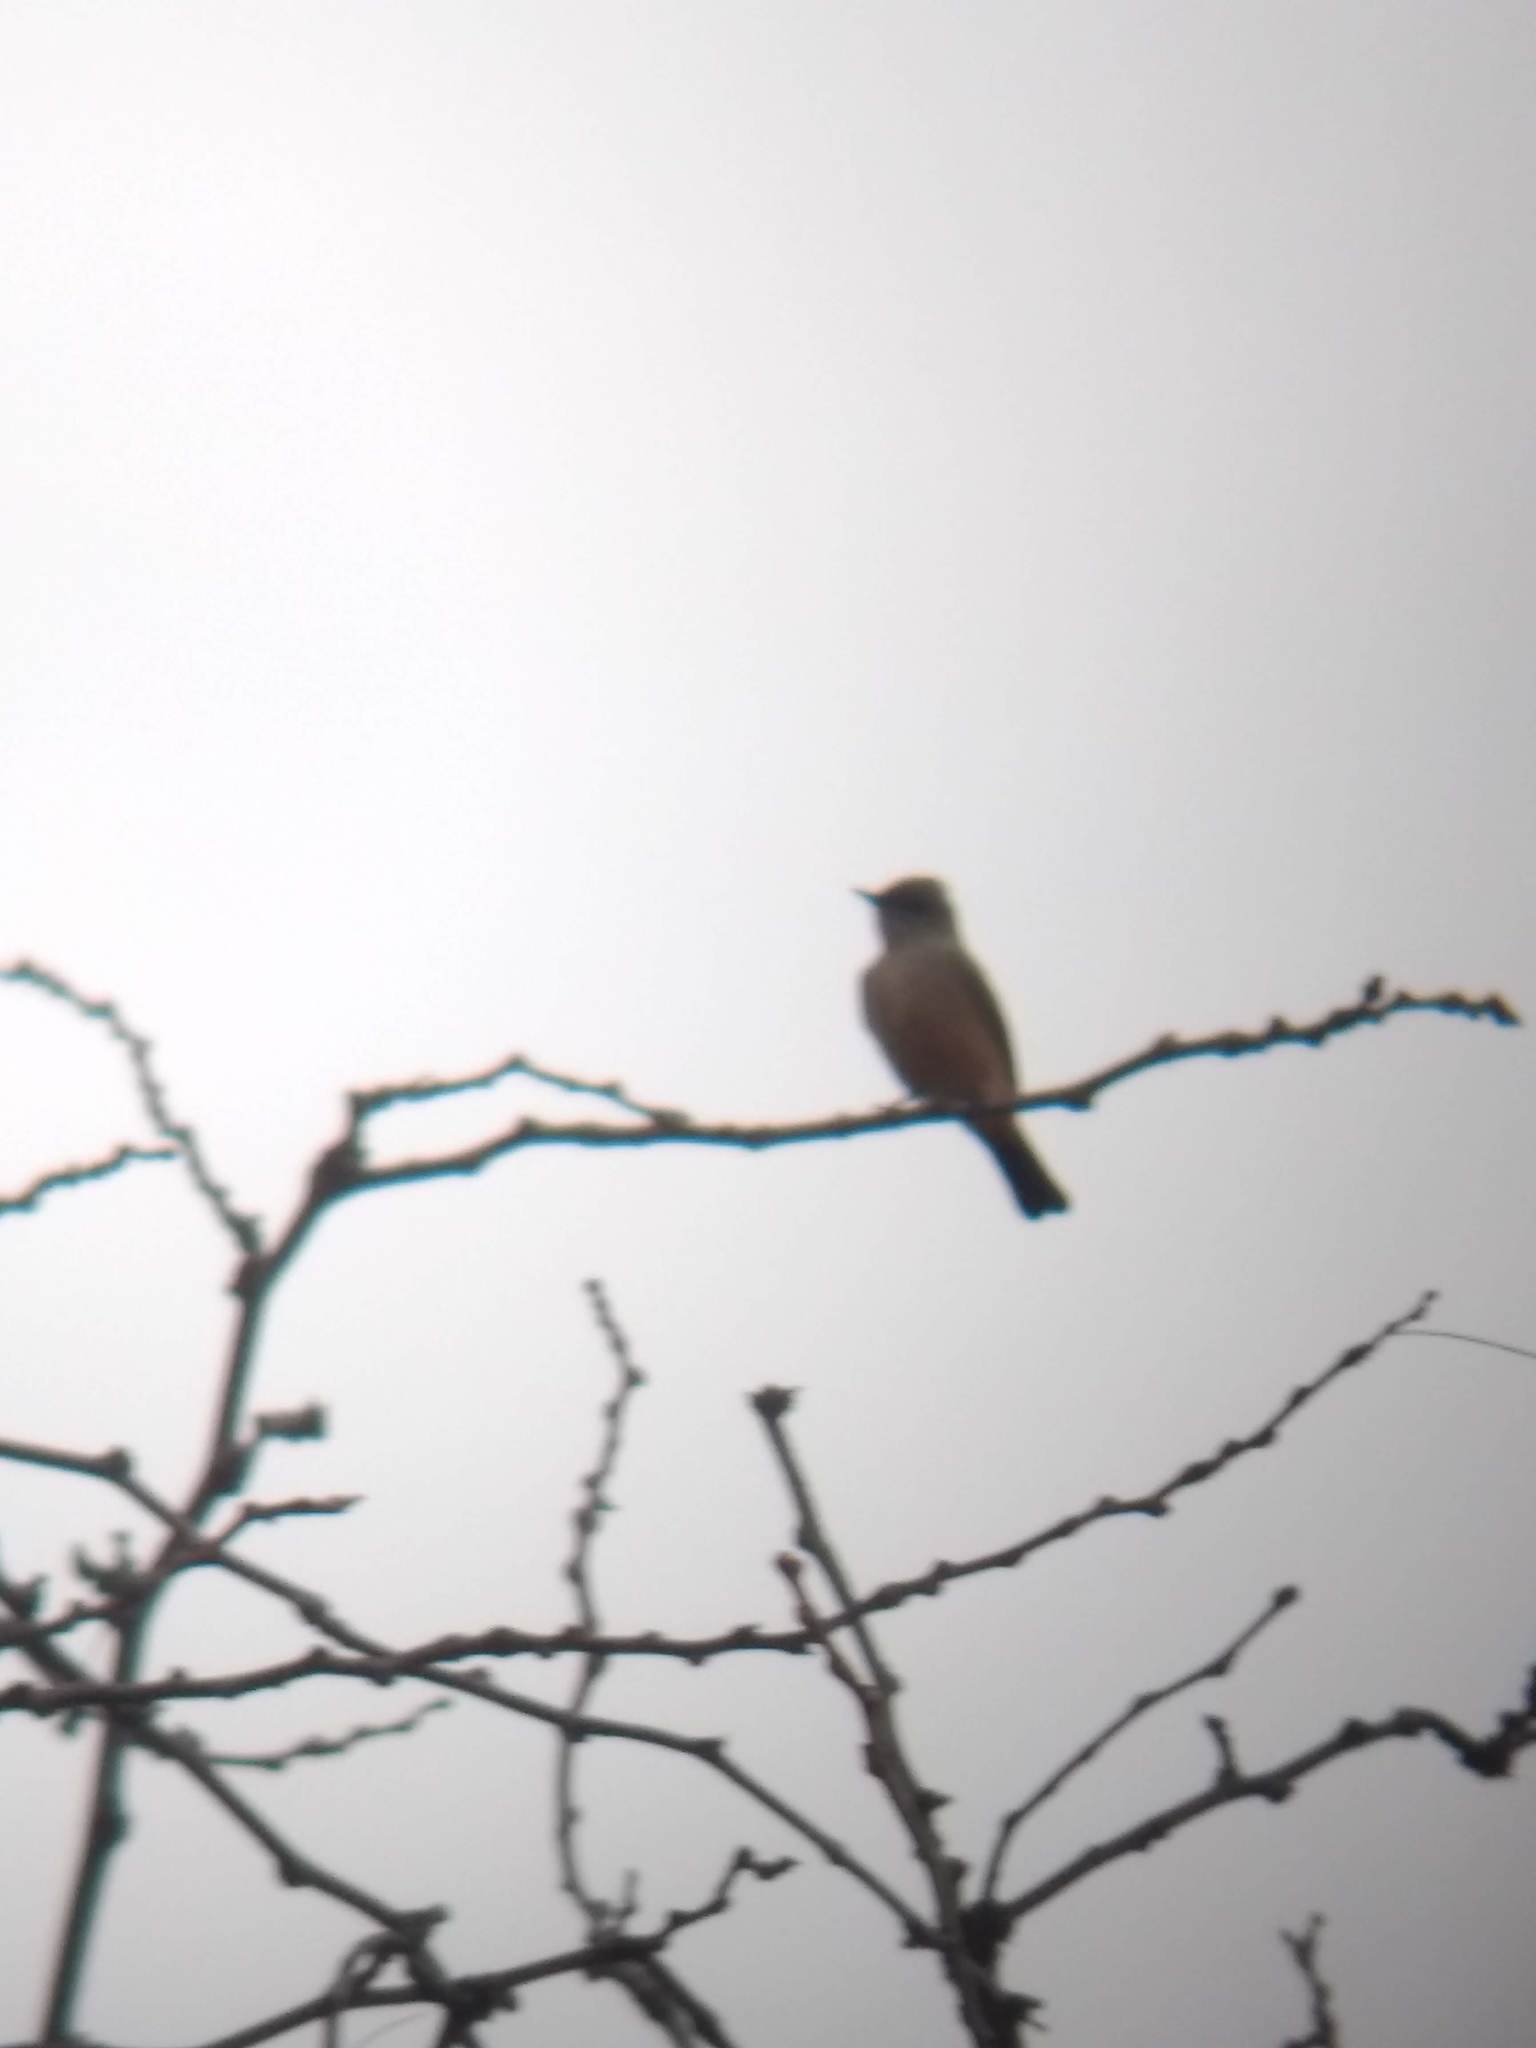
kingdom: Animalia
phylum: Chordata
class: Aves
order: Passeriformes
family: Tyrannidae
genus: Sayornis
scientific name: Sayornis saya
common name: Say's phoebe
